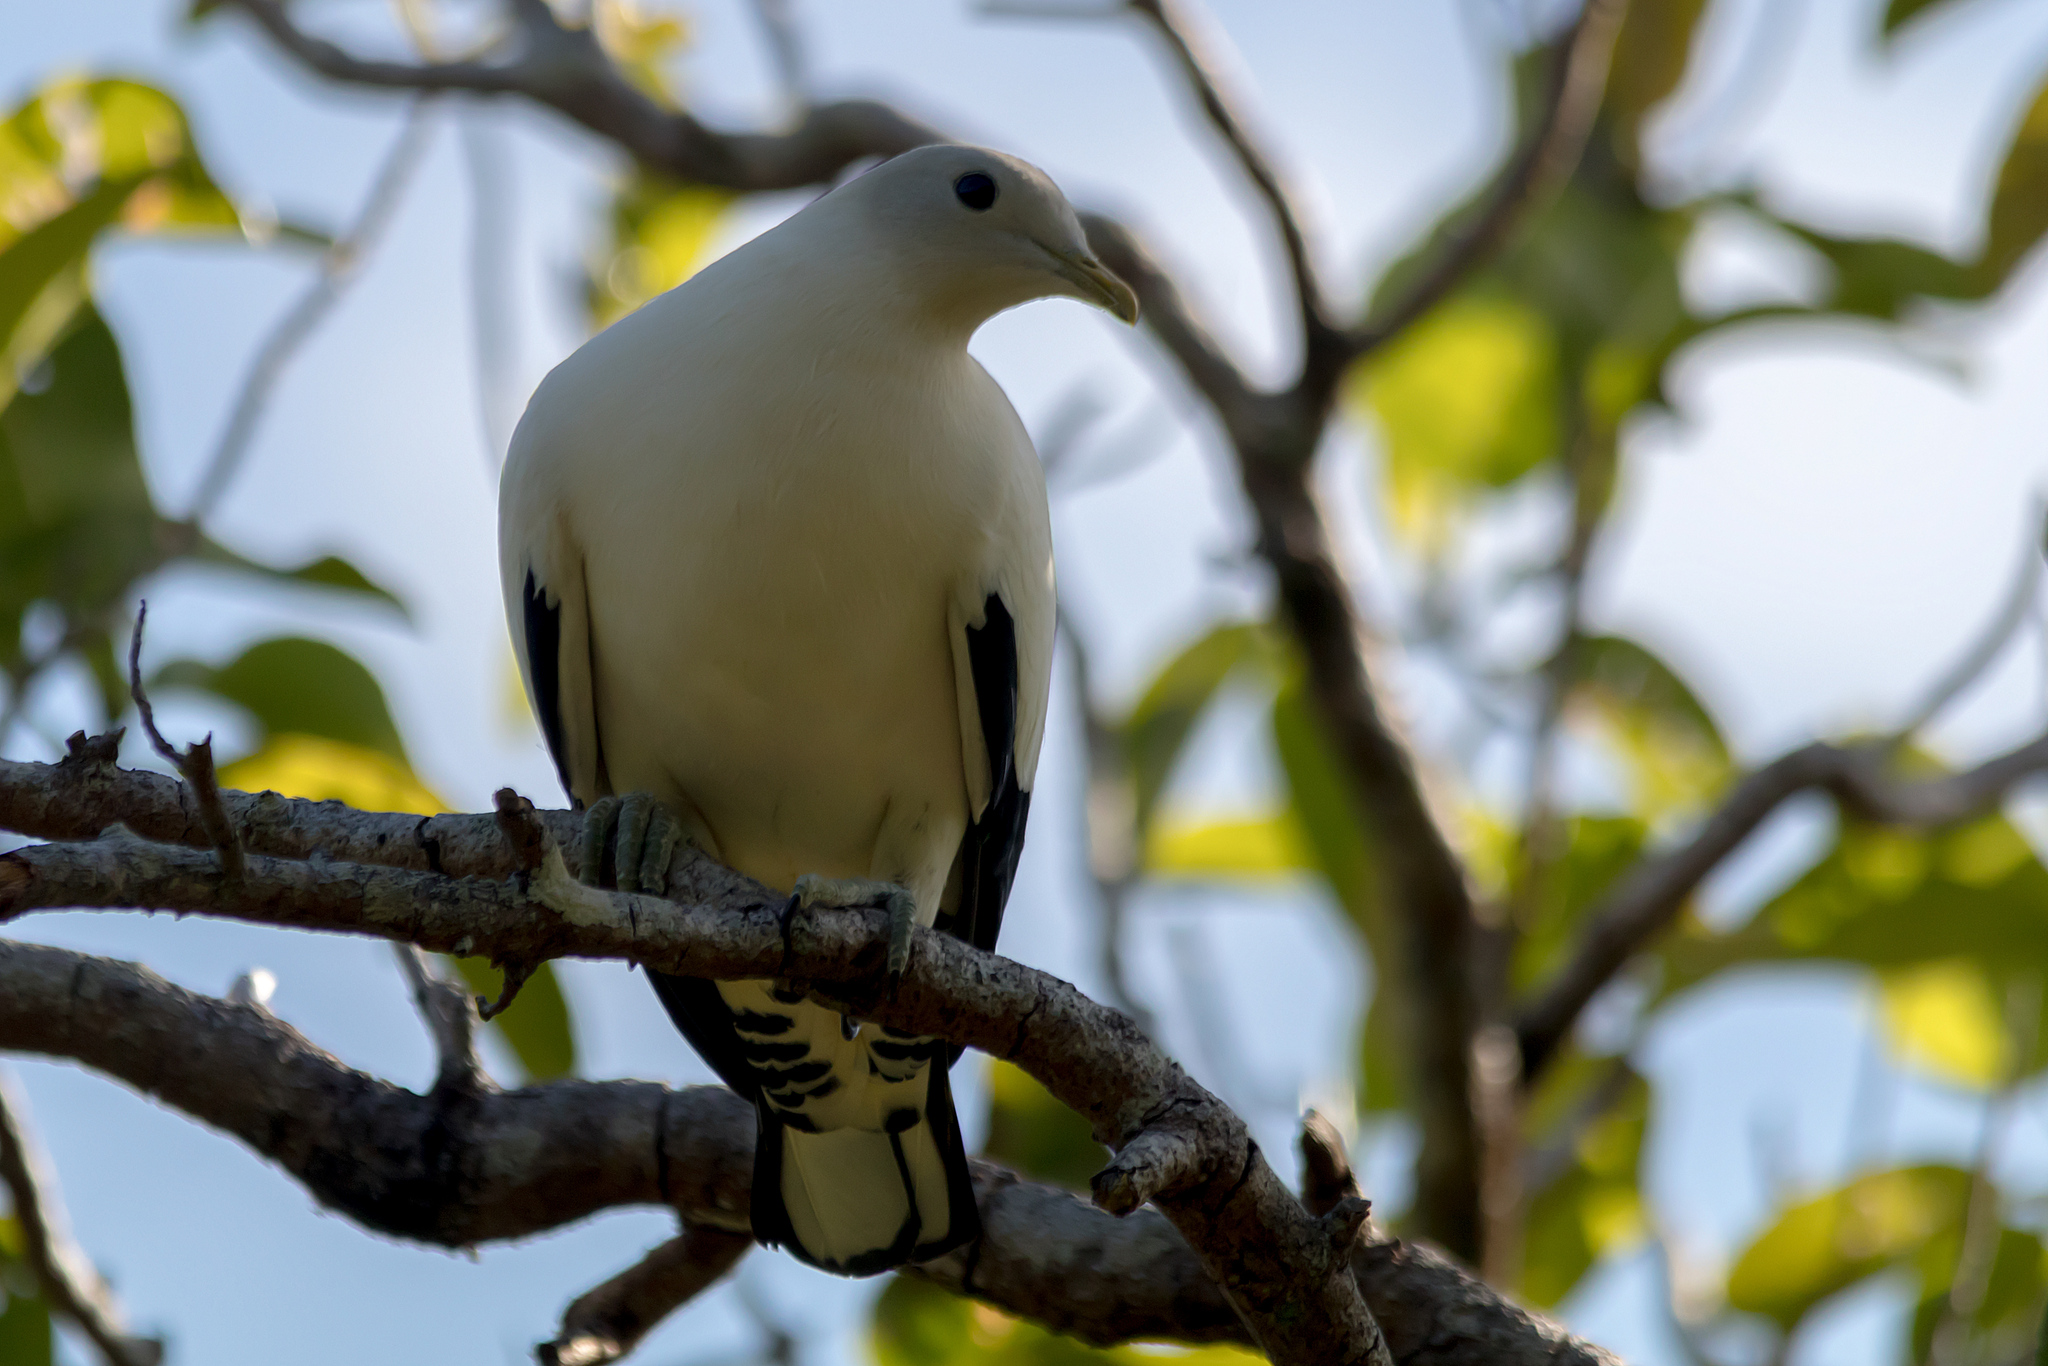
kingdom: Animalia
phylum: Chordata
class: Aves
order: Columbiformes
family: Columbidae
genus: Ducula
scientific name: Ducula spilorrhoa
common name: Torresian imperial pigeon
